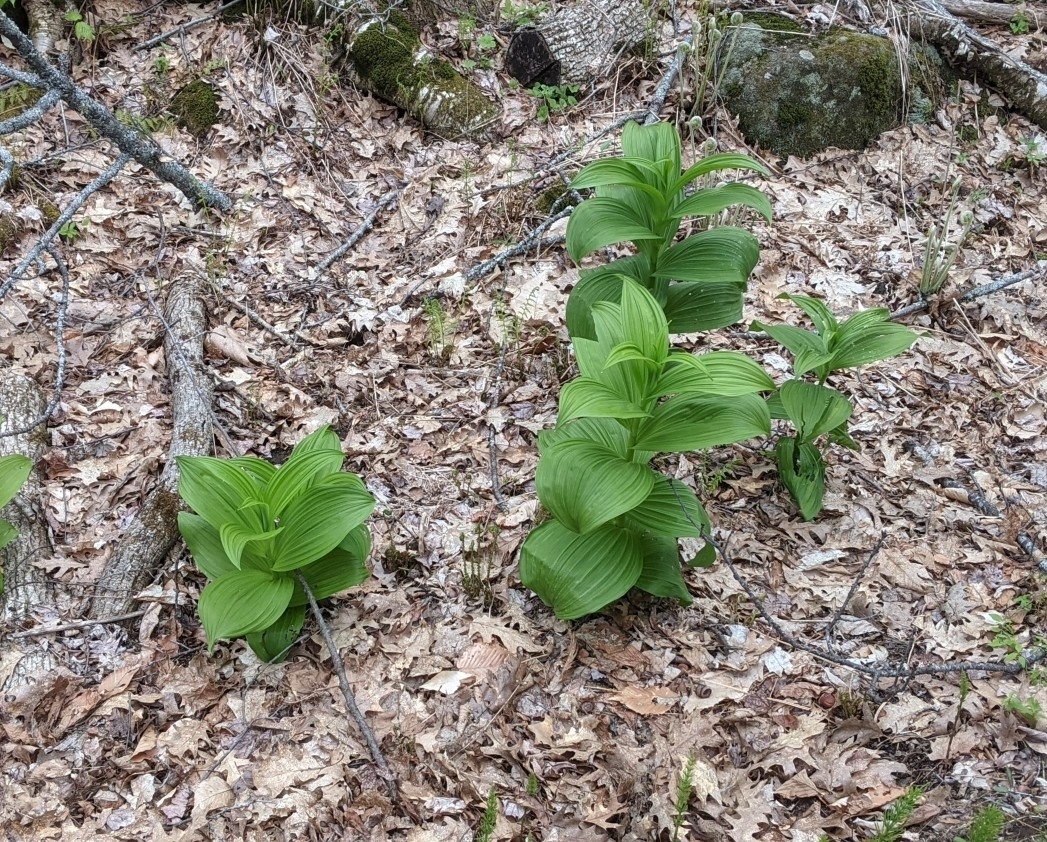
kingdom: Plantae
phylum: Tracheophyta
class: Liliopsida
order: Liliales
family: Melanthiaceae
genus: Veratrum
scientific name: Veratrum viride
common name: American false hellebore
